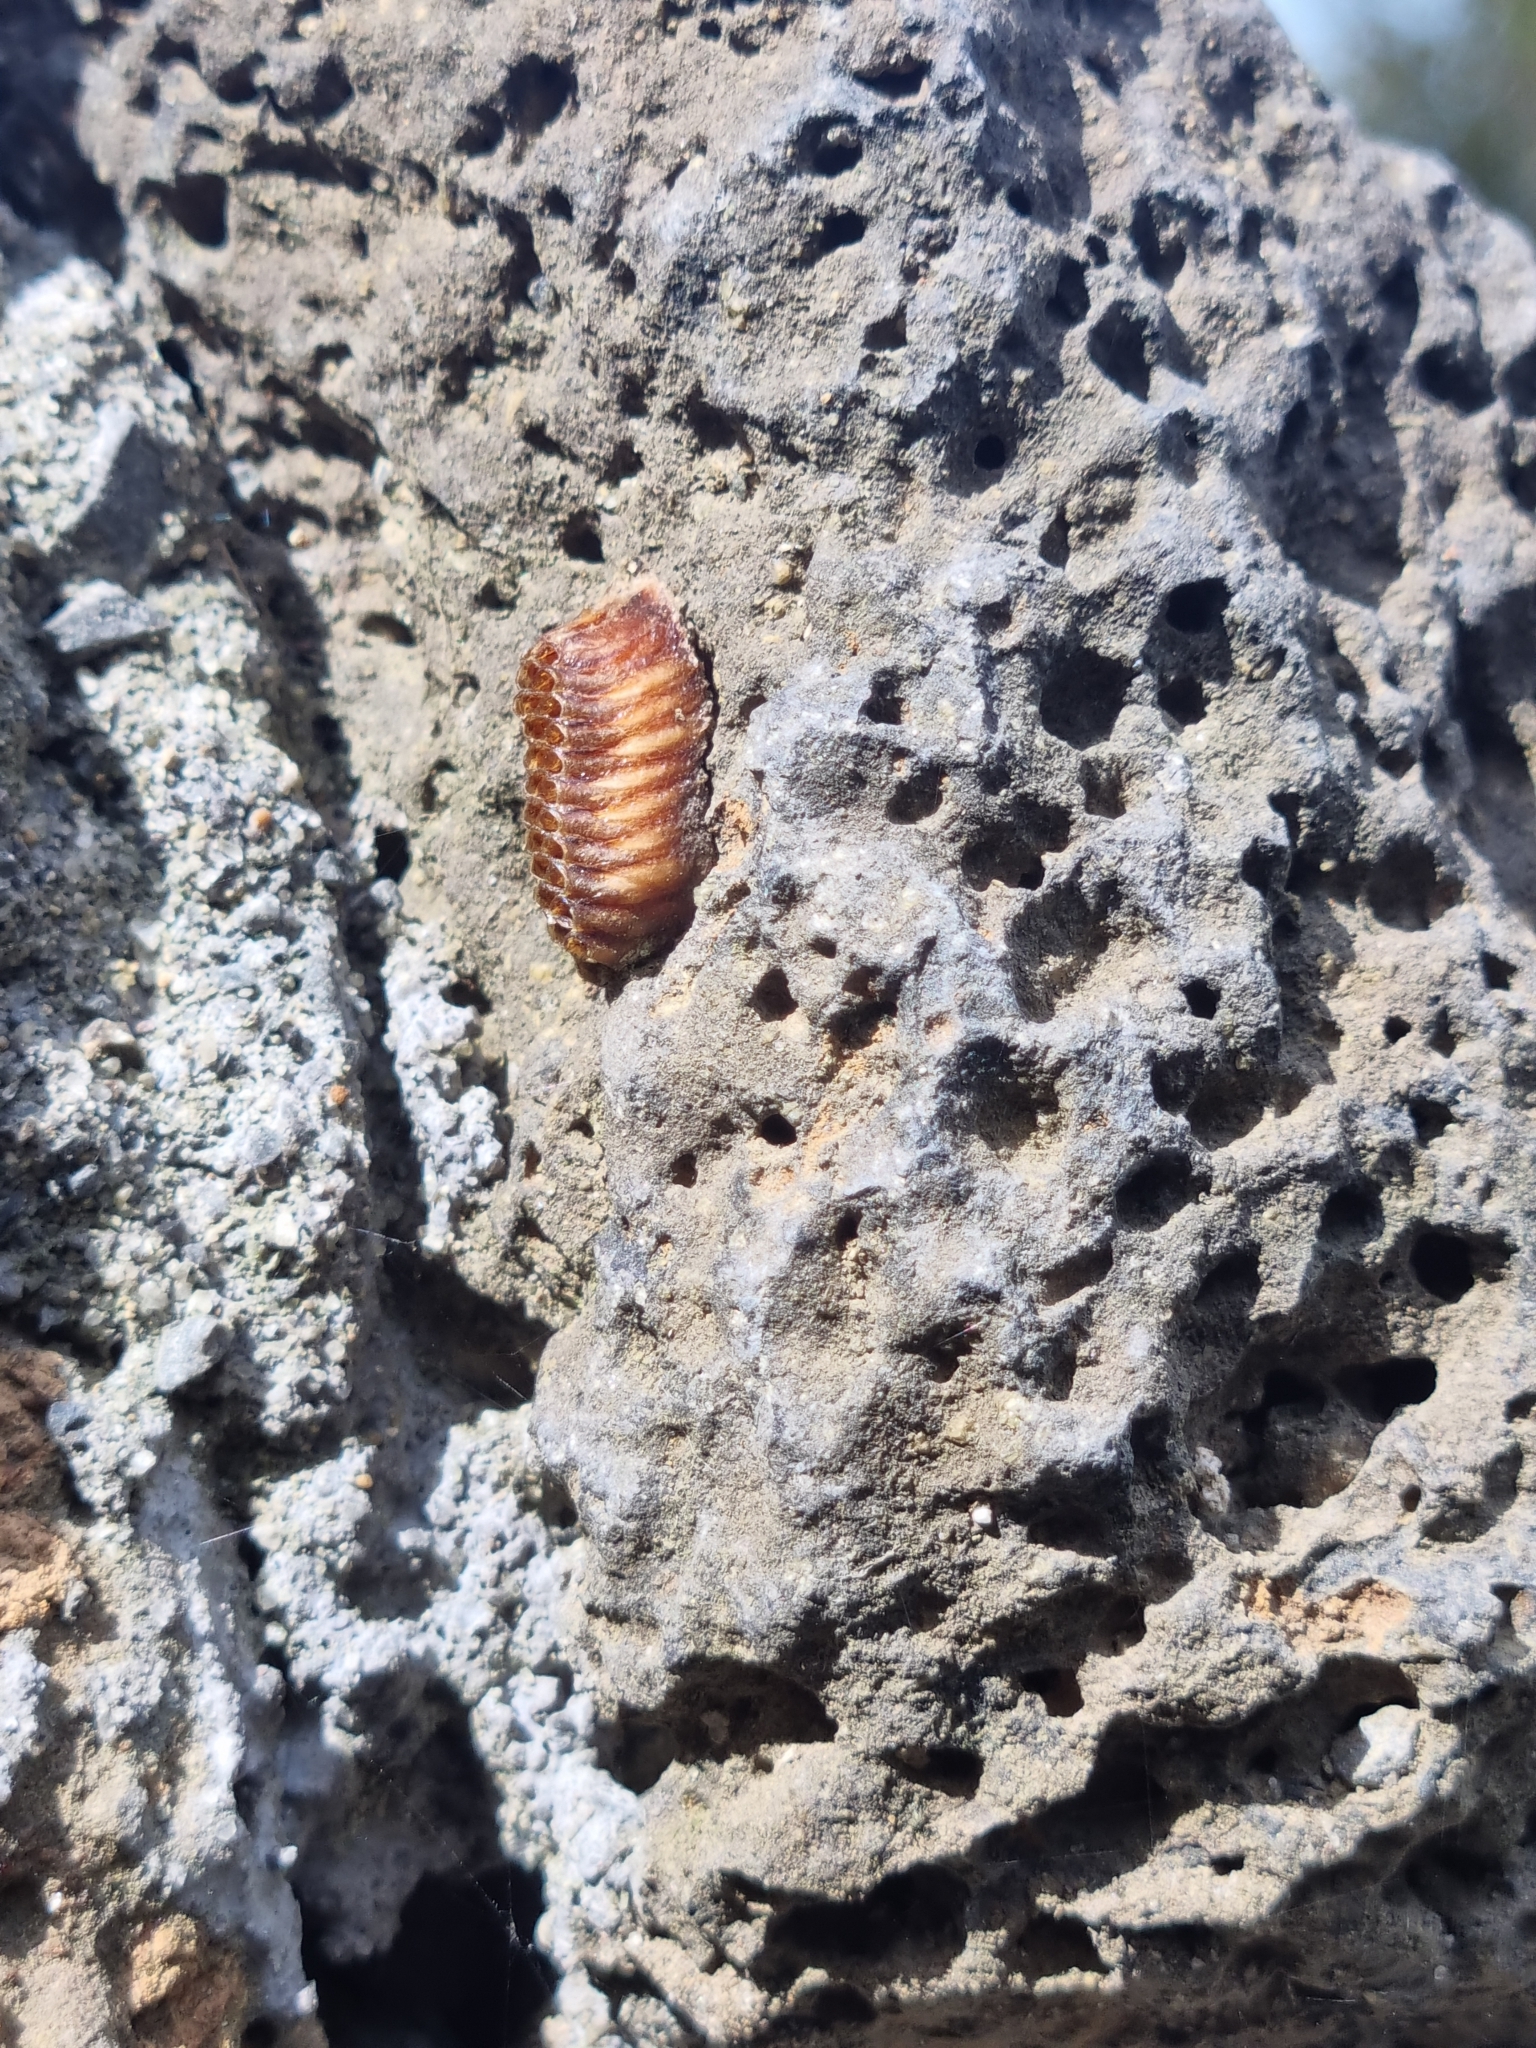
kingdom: Animalia
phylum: Arthropoda
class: Insecta
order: Mantodea
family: Mantidae
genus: Orthodera
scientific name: Orthodera novaezealandiae
